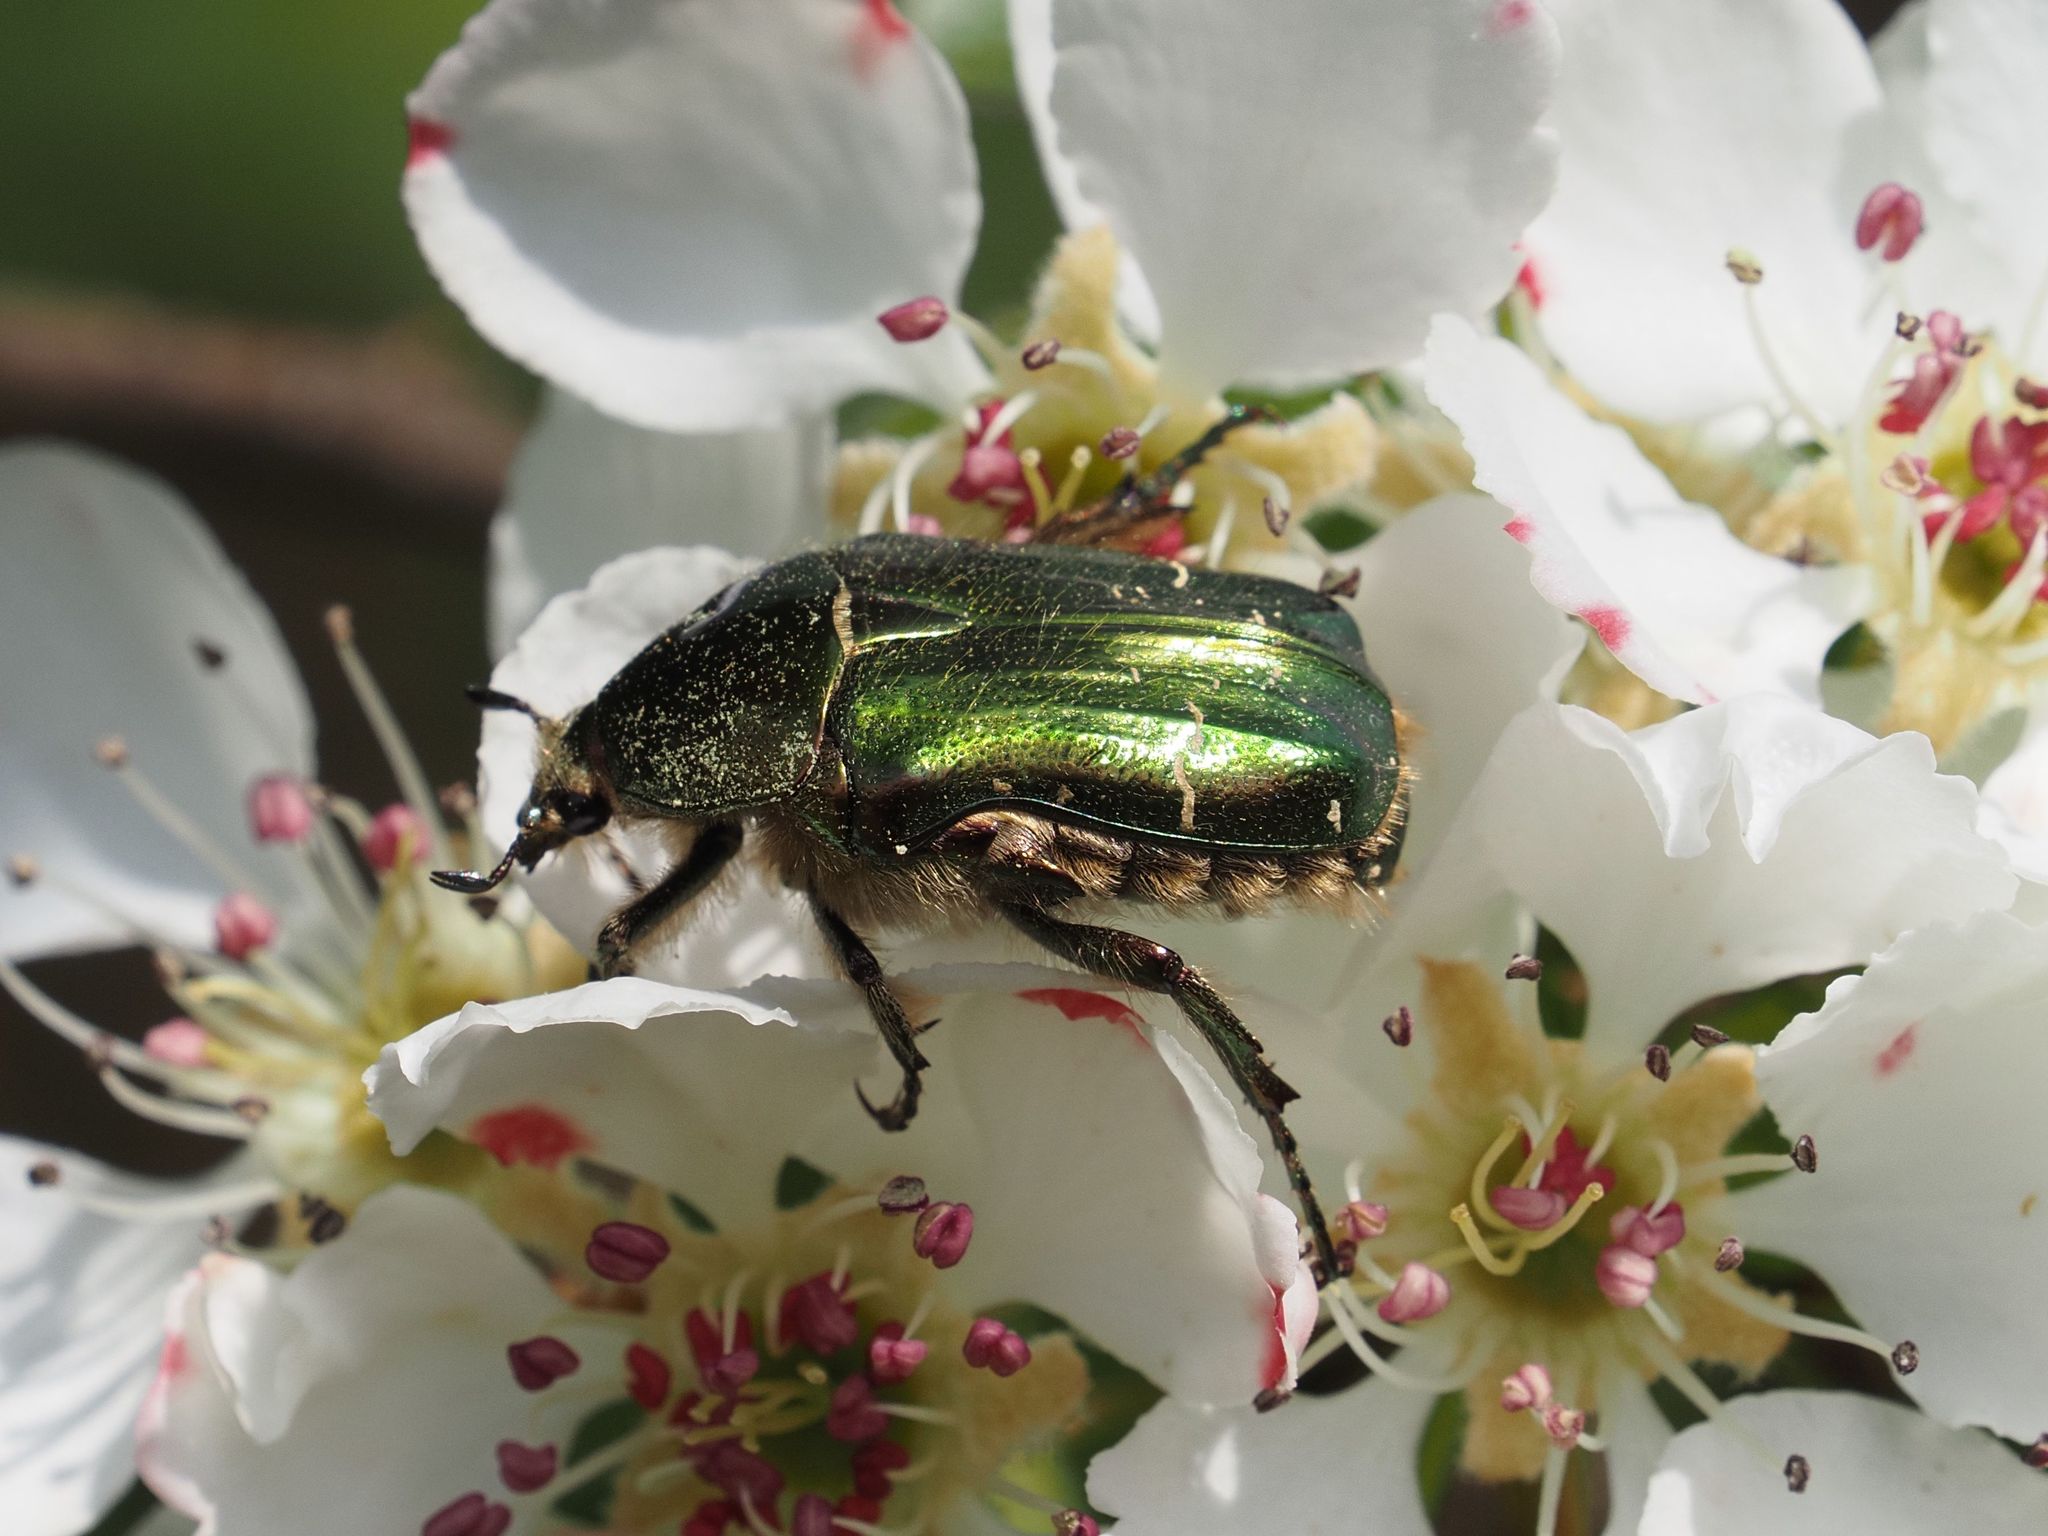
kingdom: Animalia
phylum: Arthropoda
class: Insecta
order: Coleoptera
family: Scarabaeidae
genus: Cetonia
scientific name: Cetonia aurata
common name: Rose chafer
